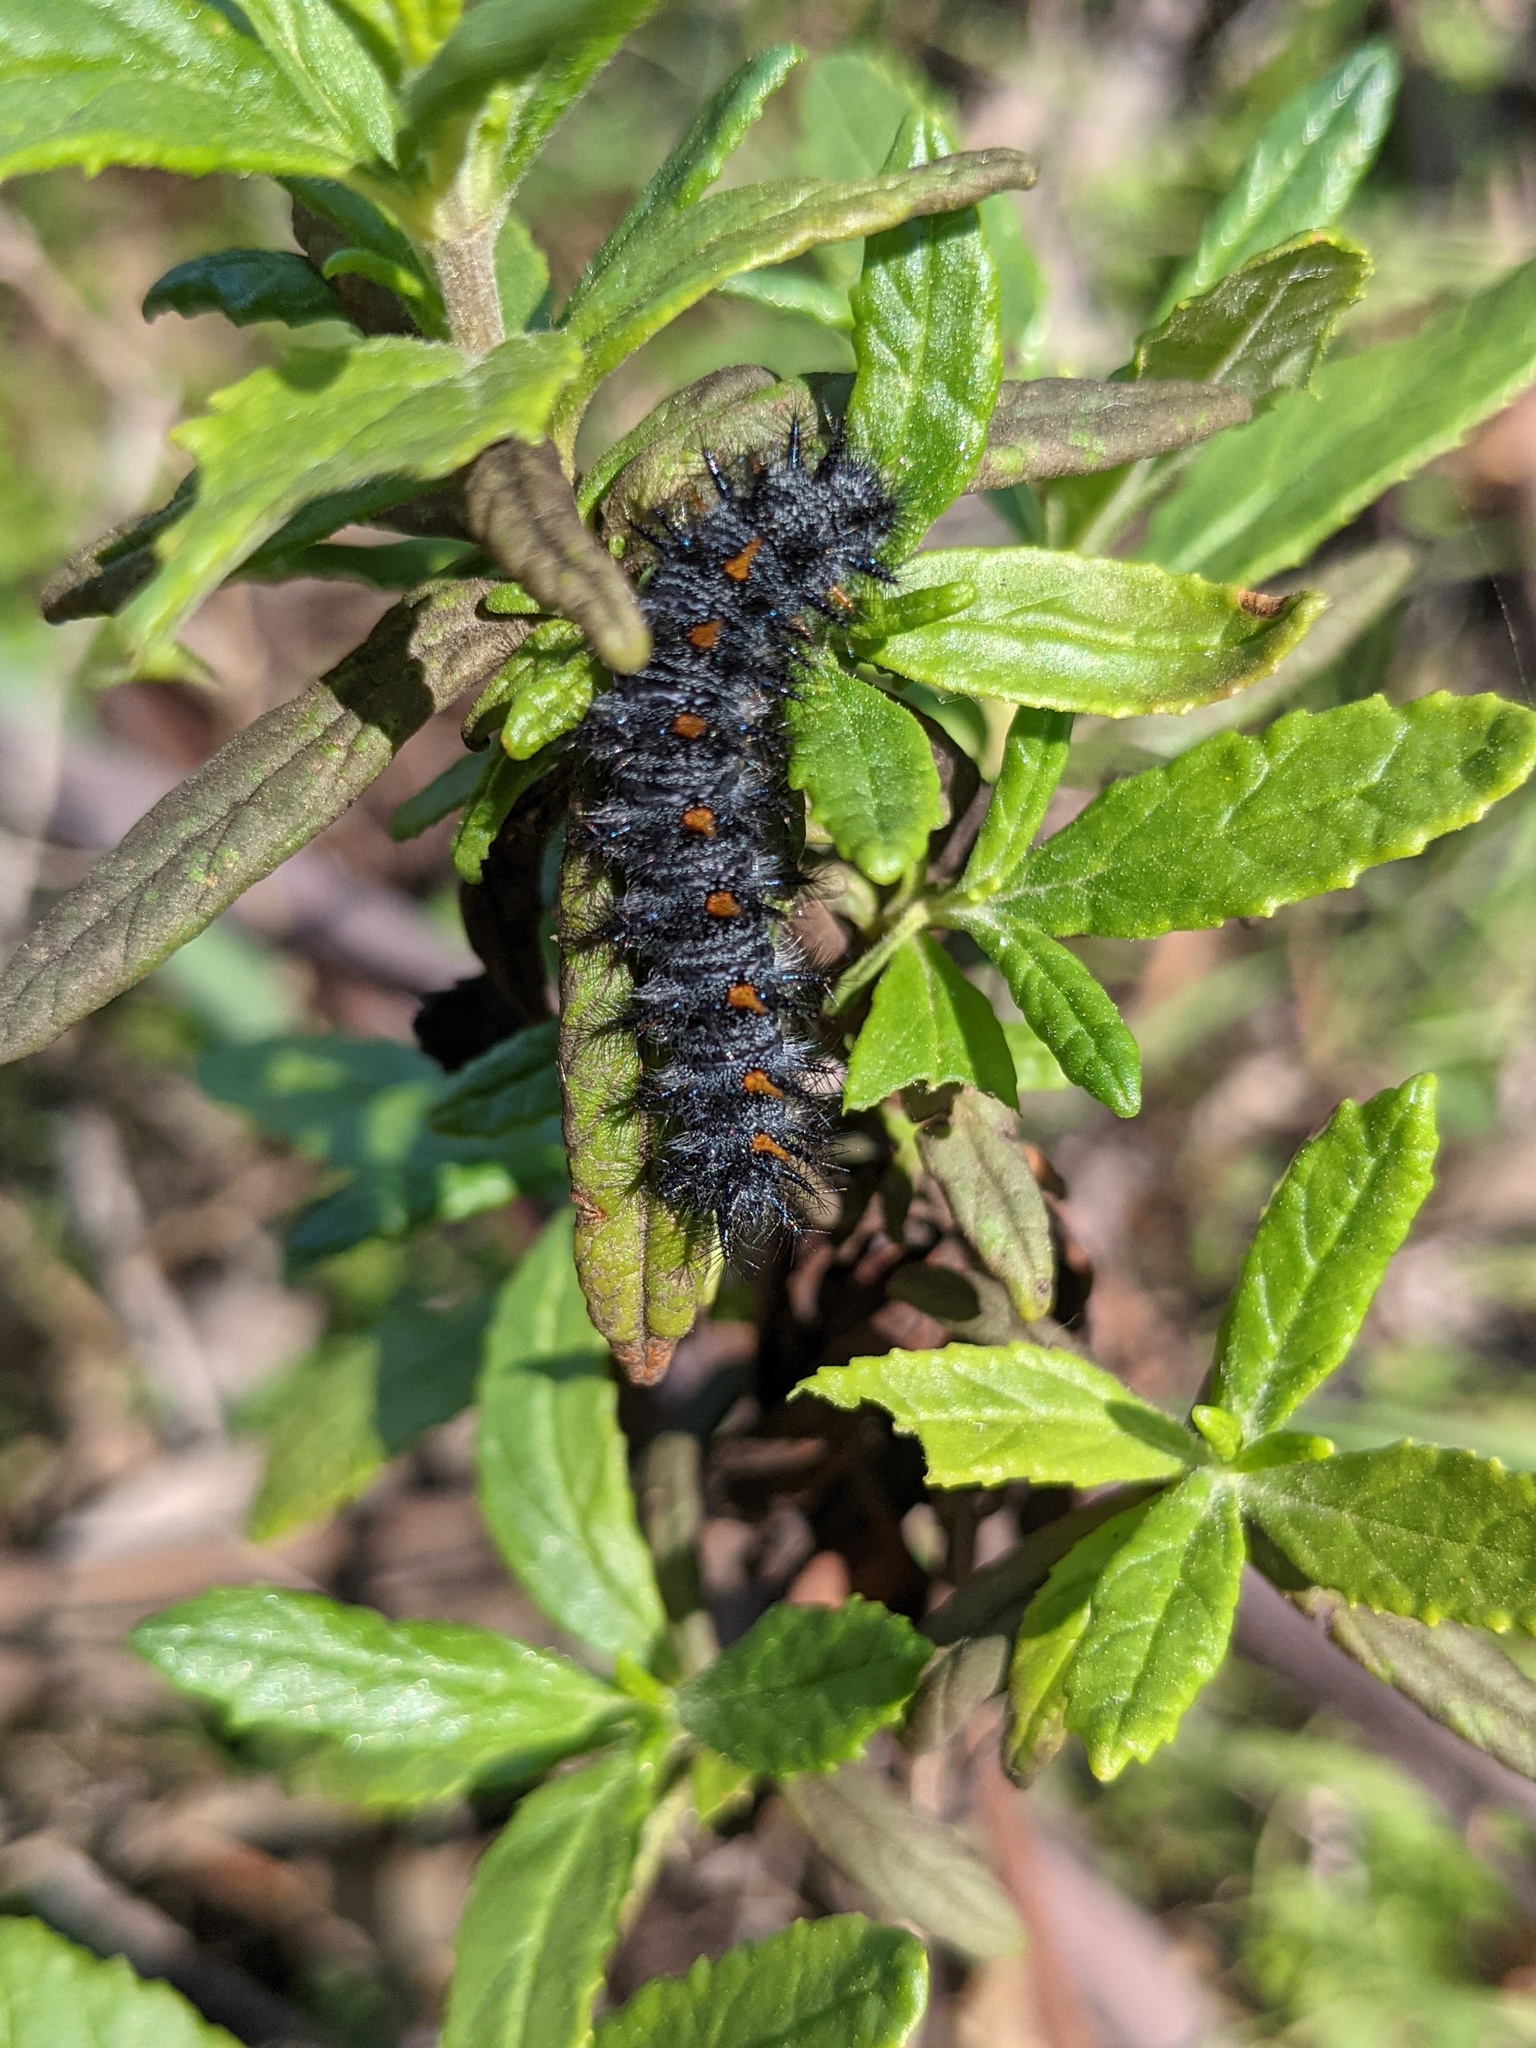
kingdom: Animalia
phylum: Arthropoda
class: Insecta
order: Lepidoptera
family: Nymphalidae
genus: Occidryas
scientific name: Occidryas chalcedona
